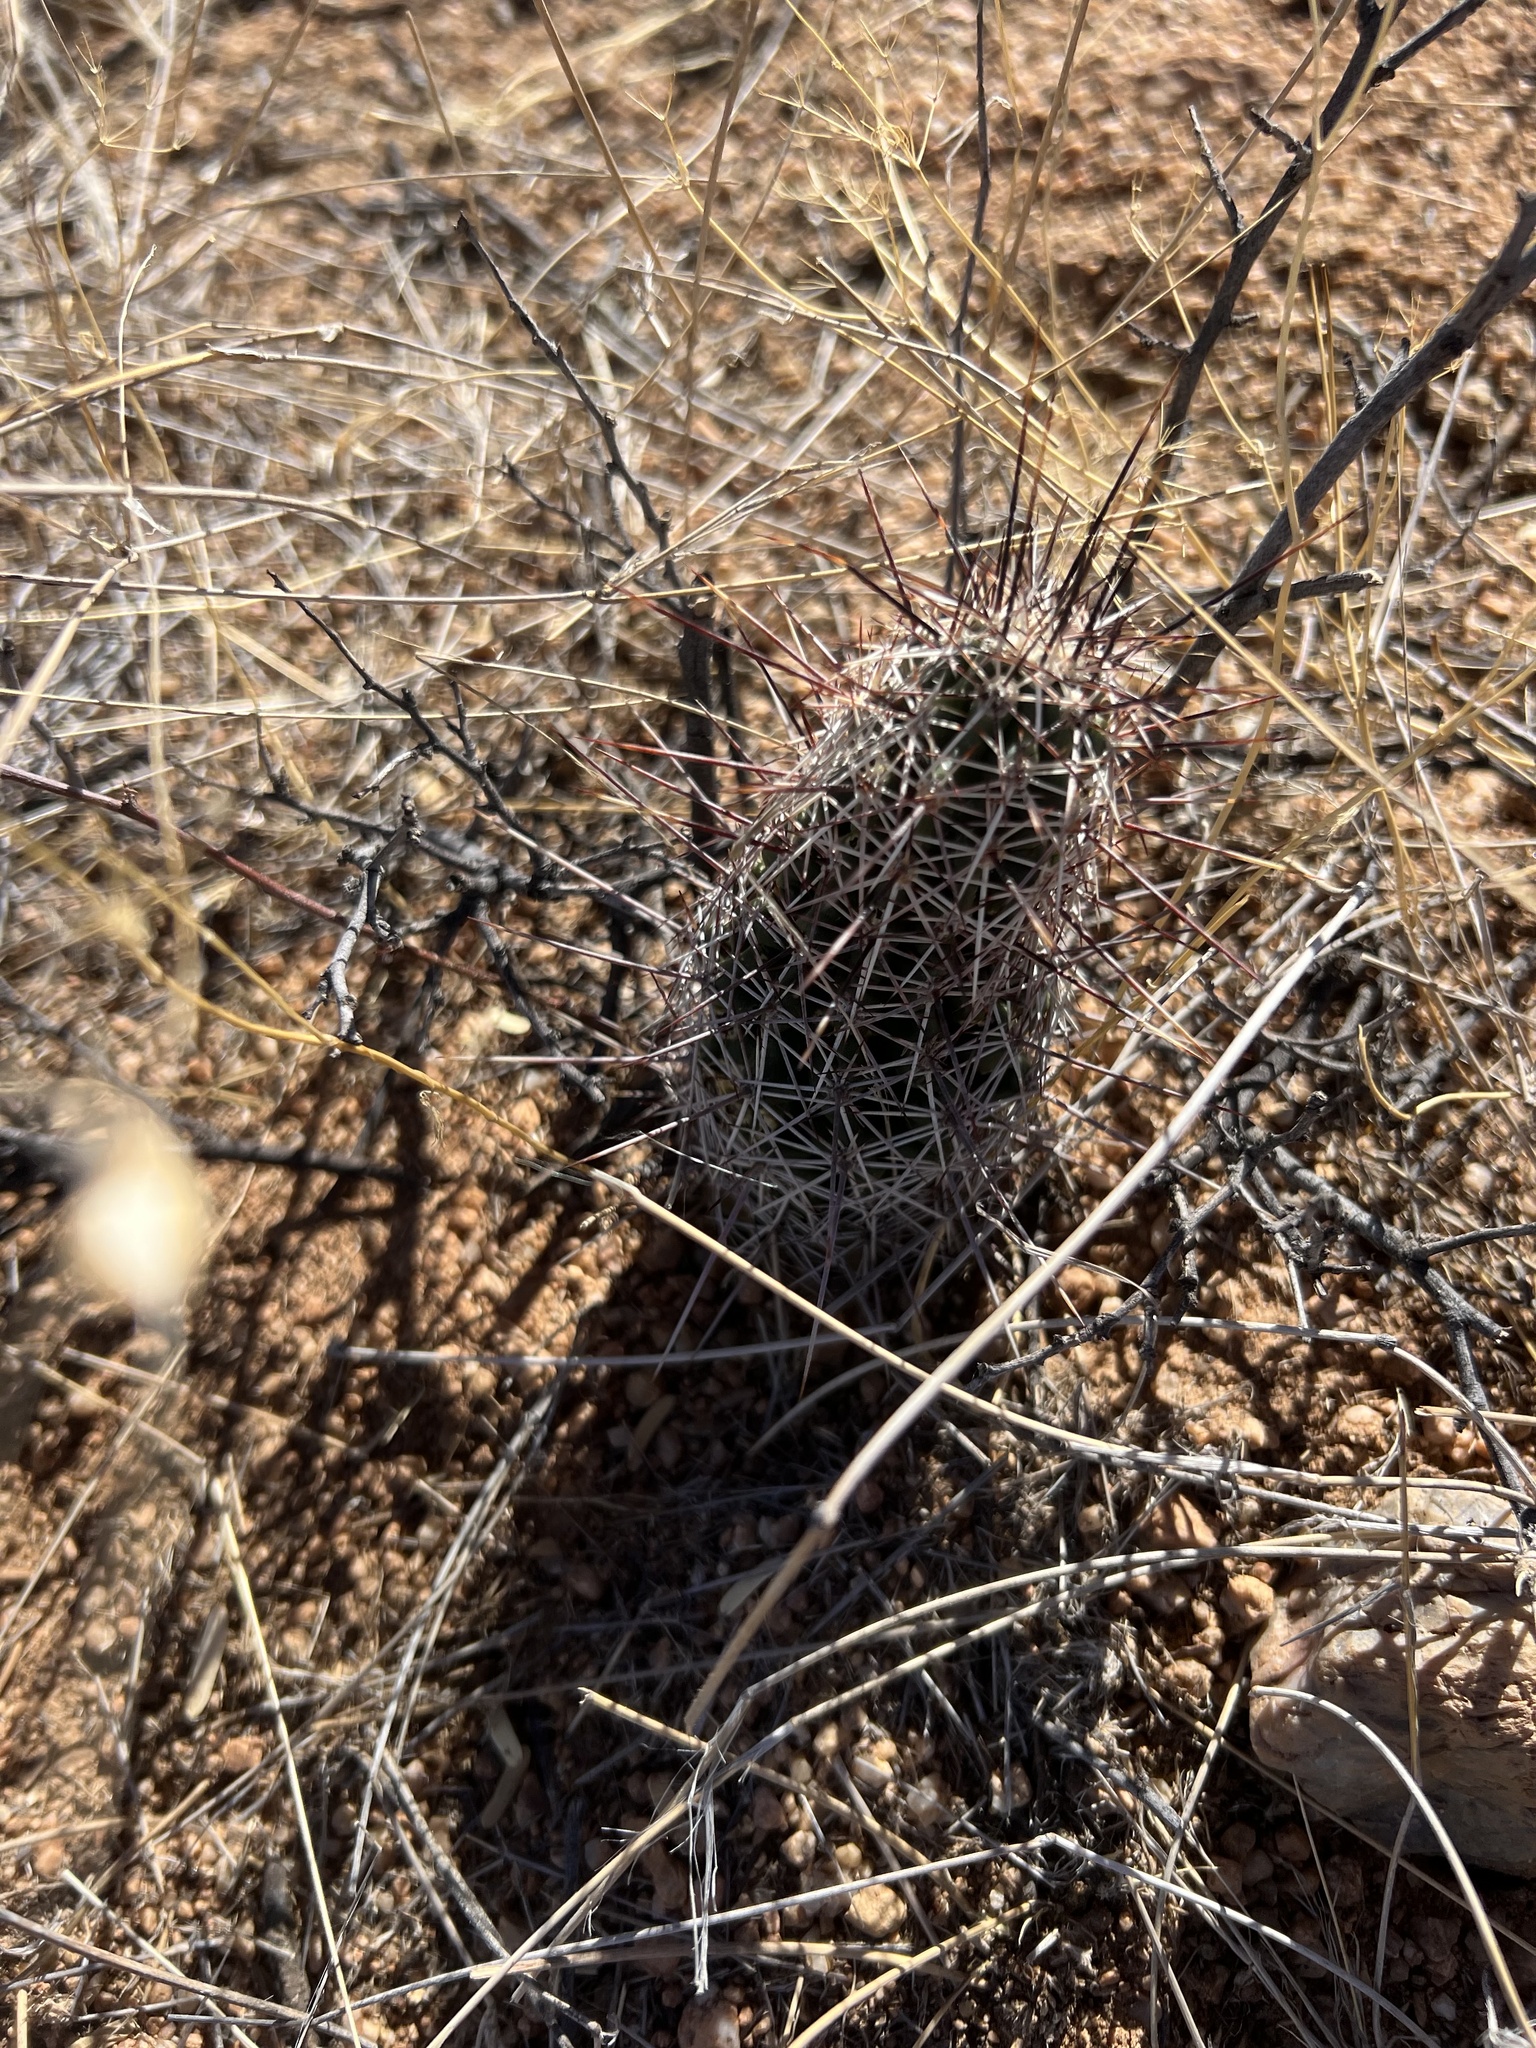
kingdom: Plantae
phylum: Tracheophyta
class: Magnoliopsida
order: Caryophyllales
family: Cactaceae
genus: Echinocereus
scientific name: Echinocereus fendleri
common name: Fendler's hedgehog cactus
